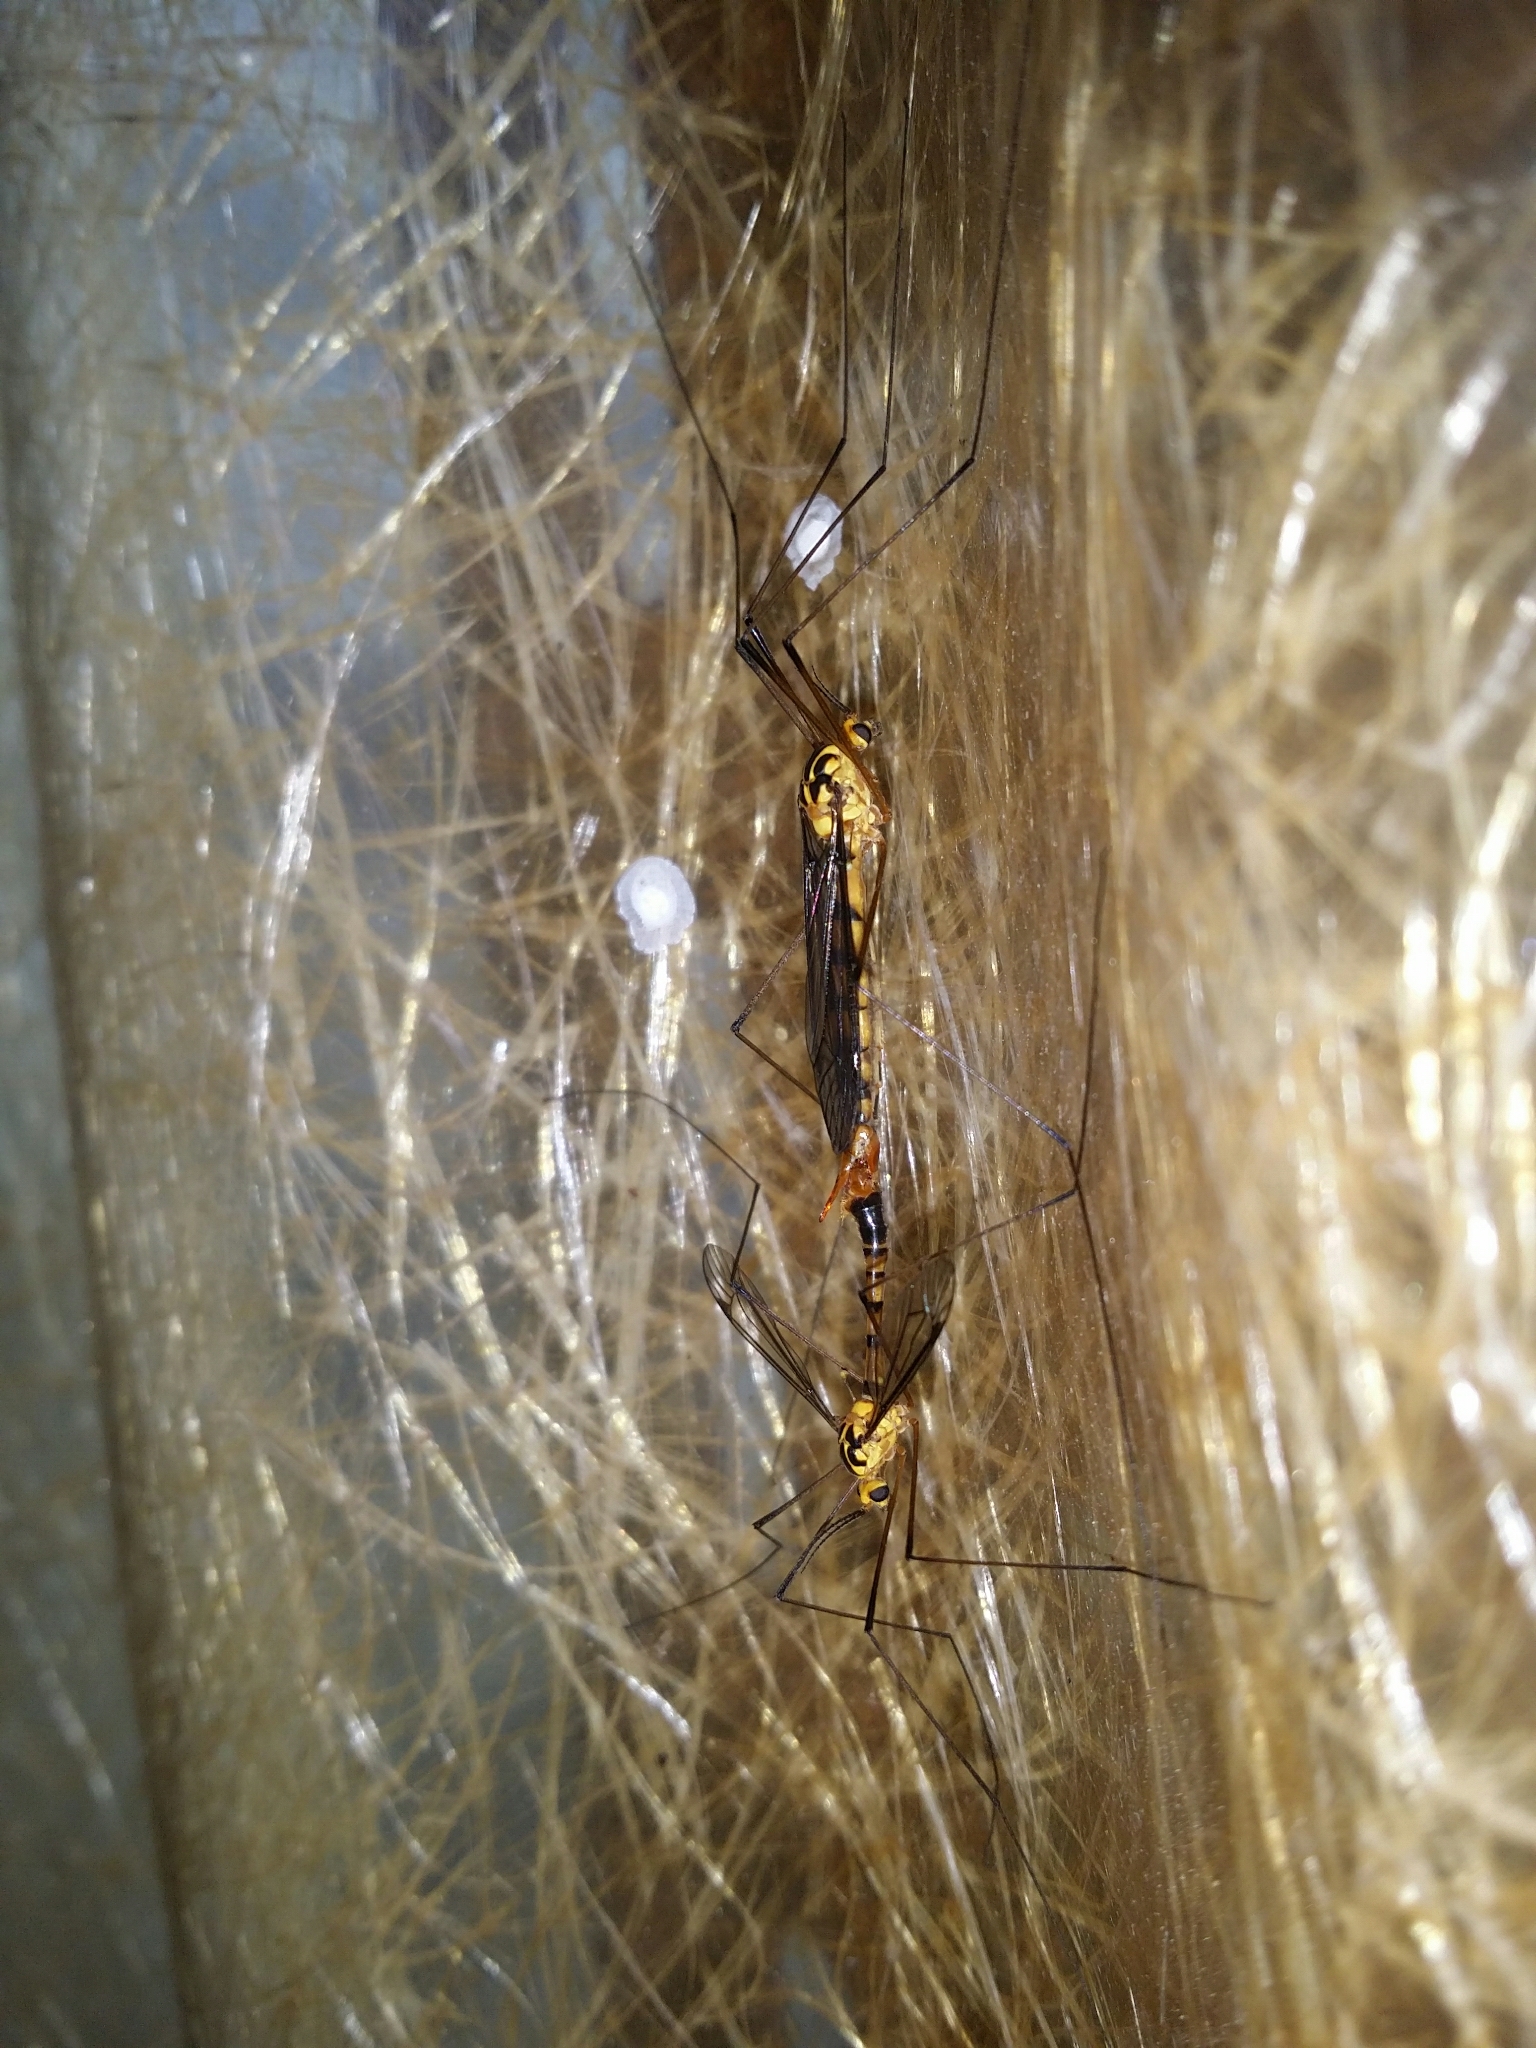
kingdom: Animalia
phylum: Arthropoda
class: Insecta
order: Diptera
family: Tipulidae
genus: Nephrotoma
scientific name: Nephrotoma australasiae
